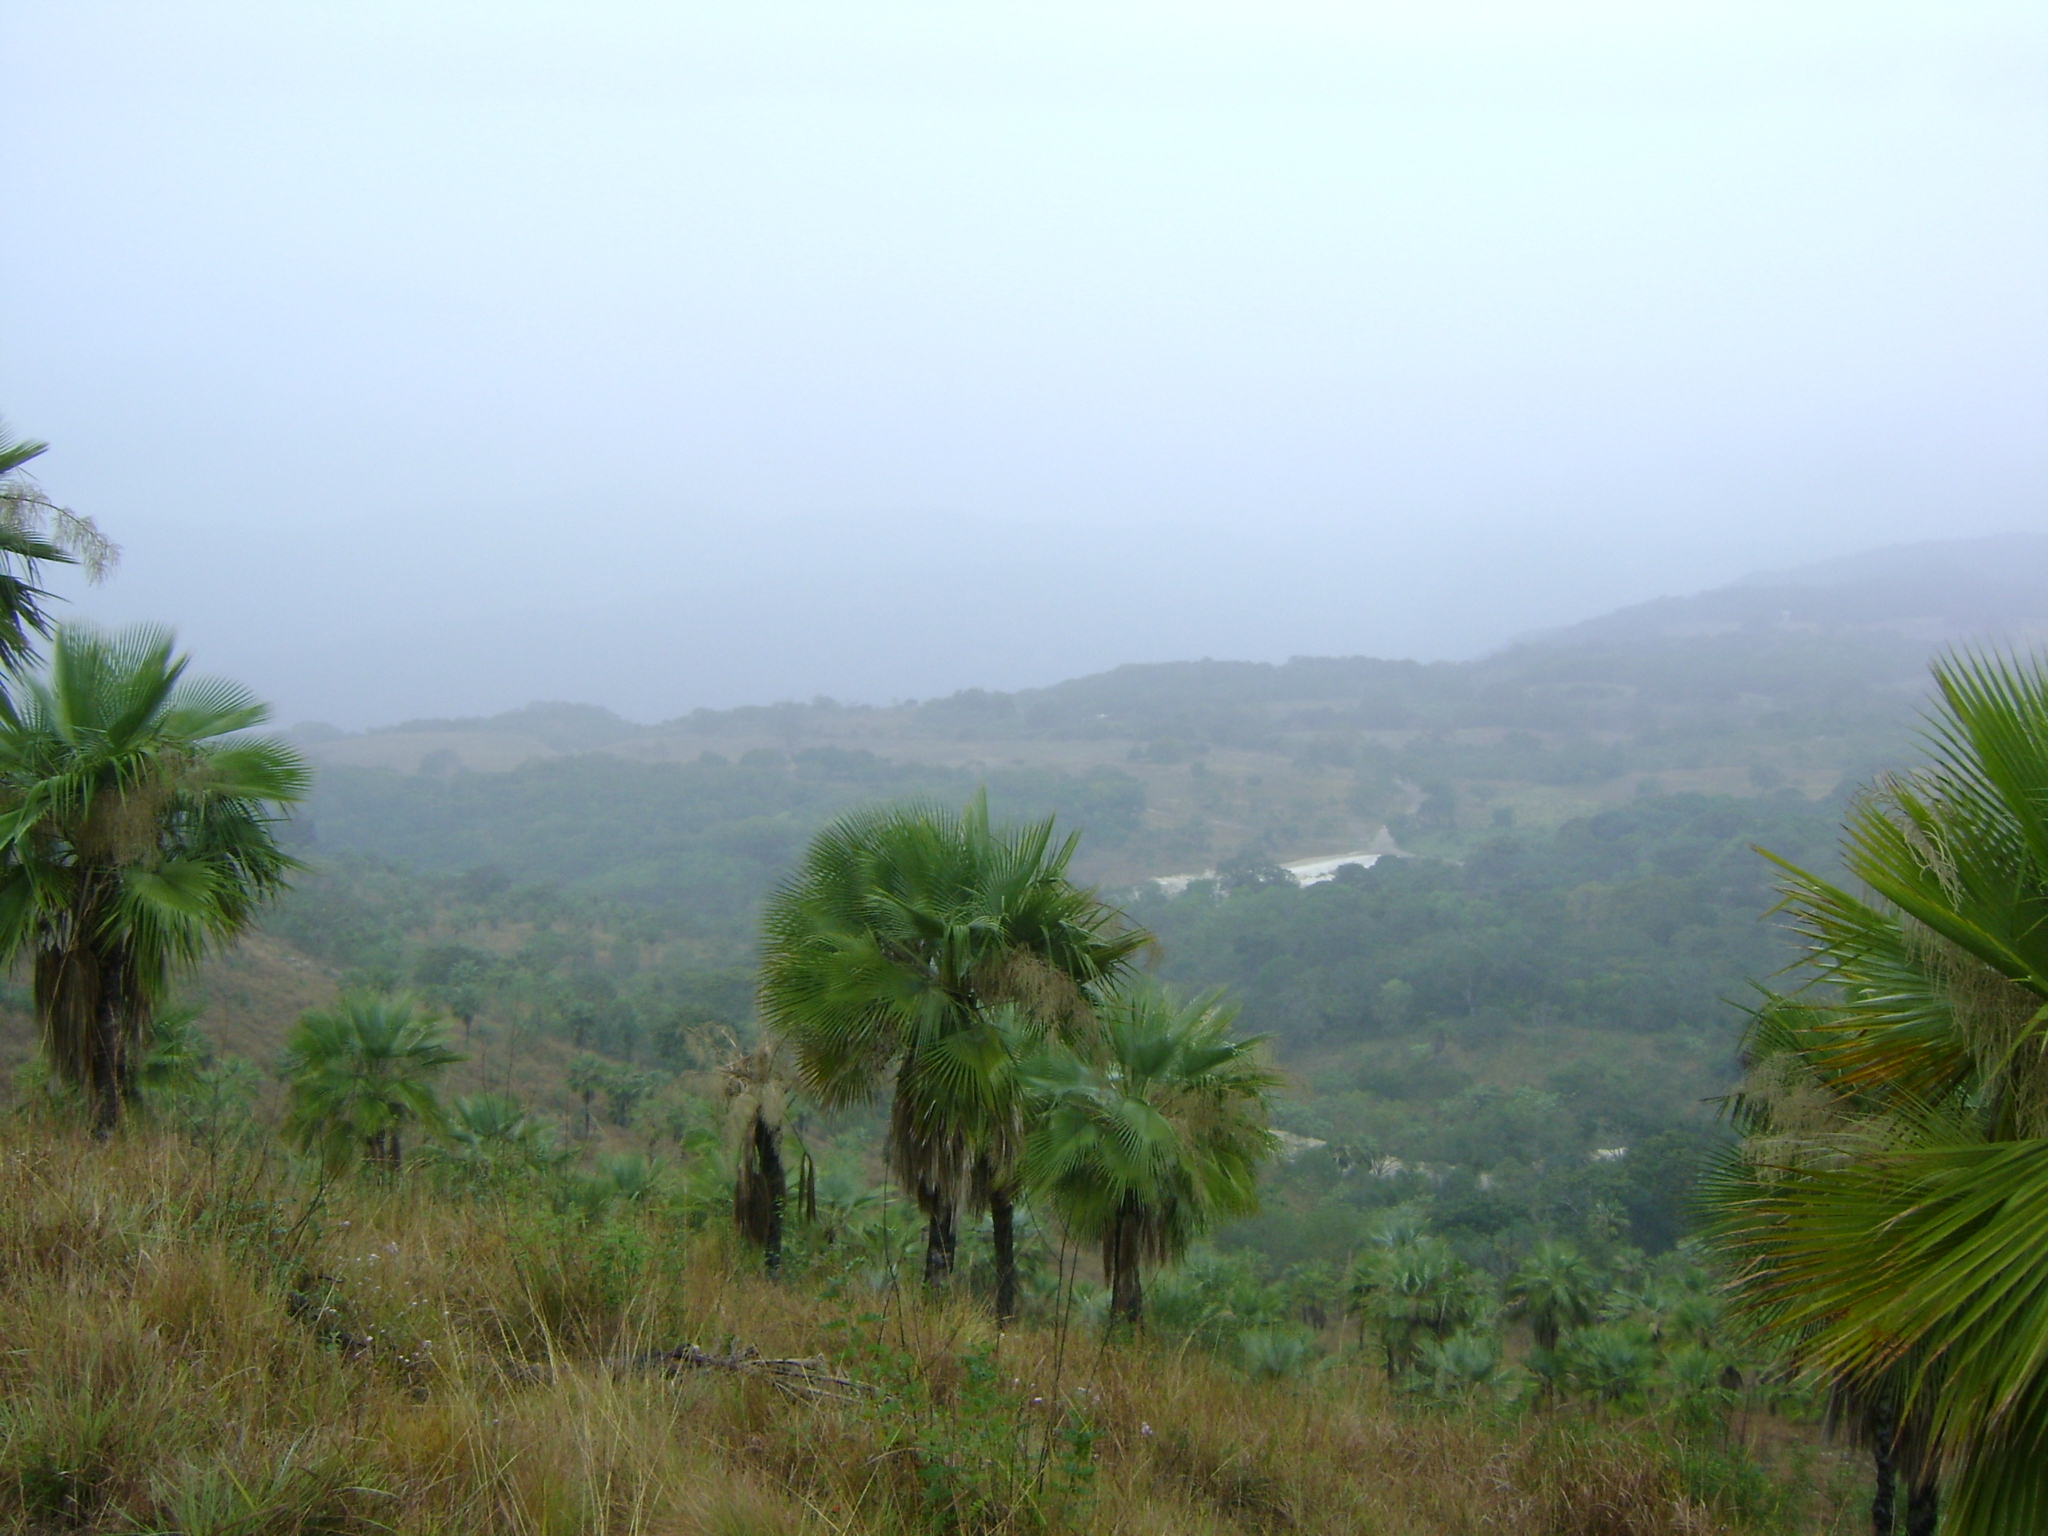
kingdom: Plantae
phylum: Tracheophyta
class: Liliopsida
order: Arecales
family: Arecaceae
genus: Brahea
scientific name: Brahea dulcis
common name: Apak palm
